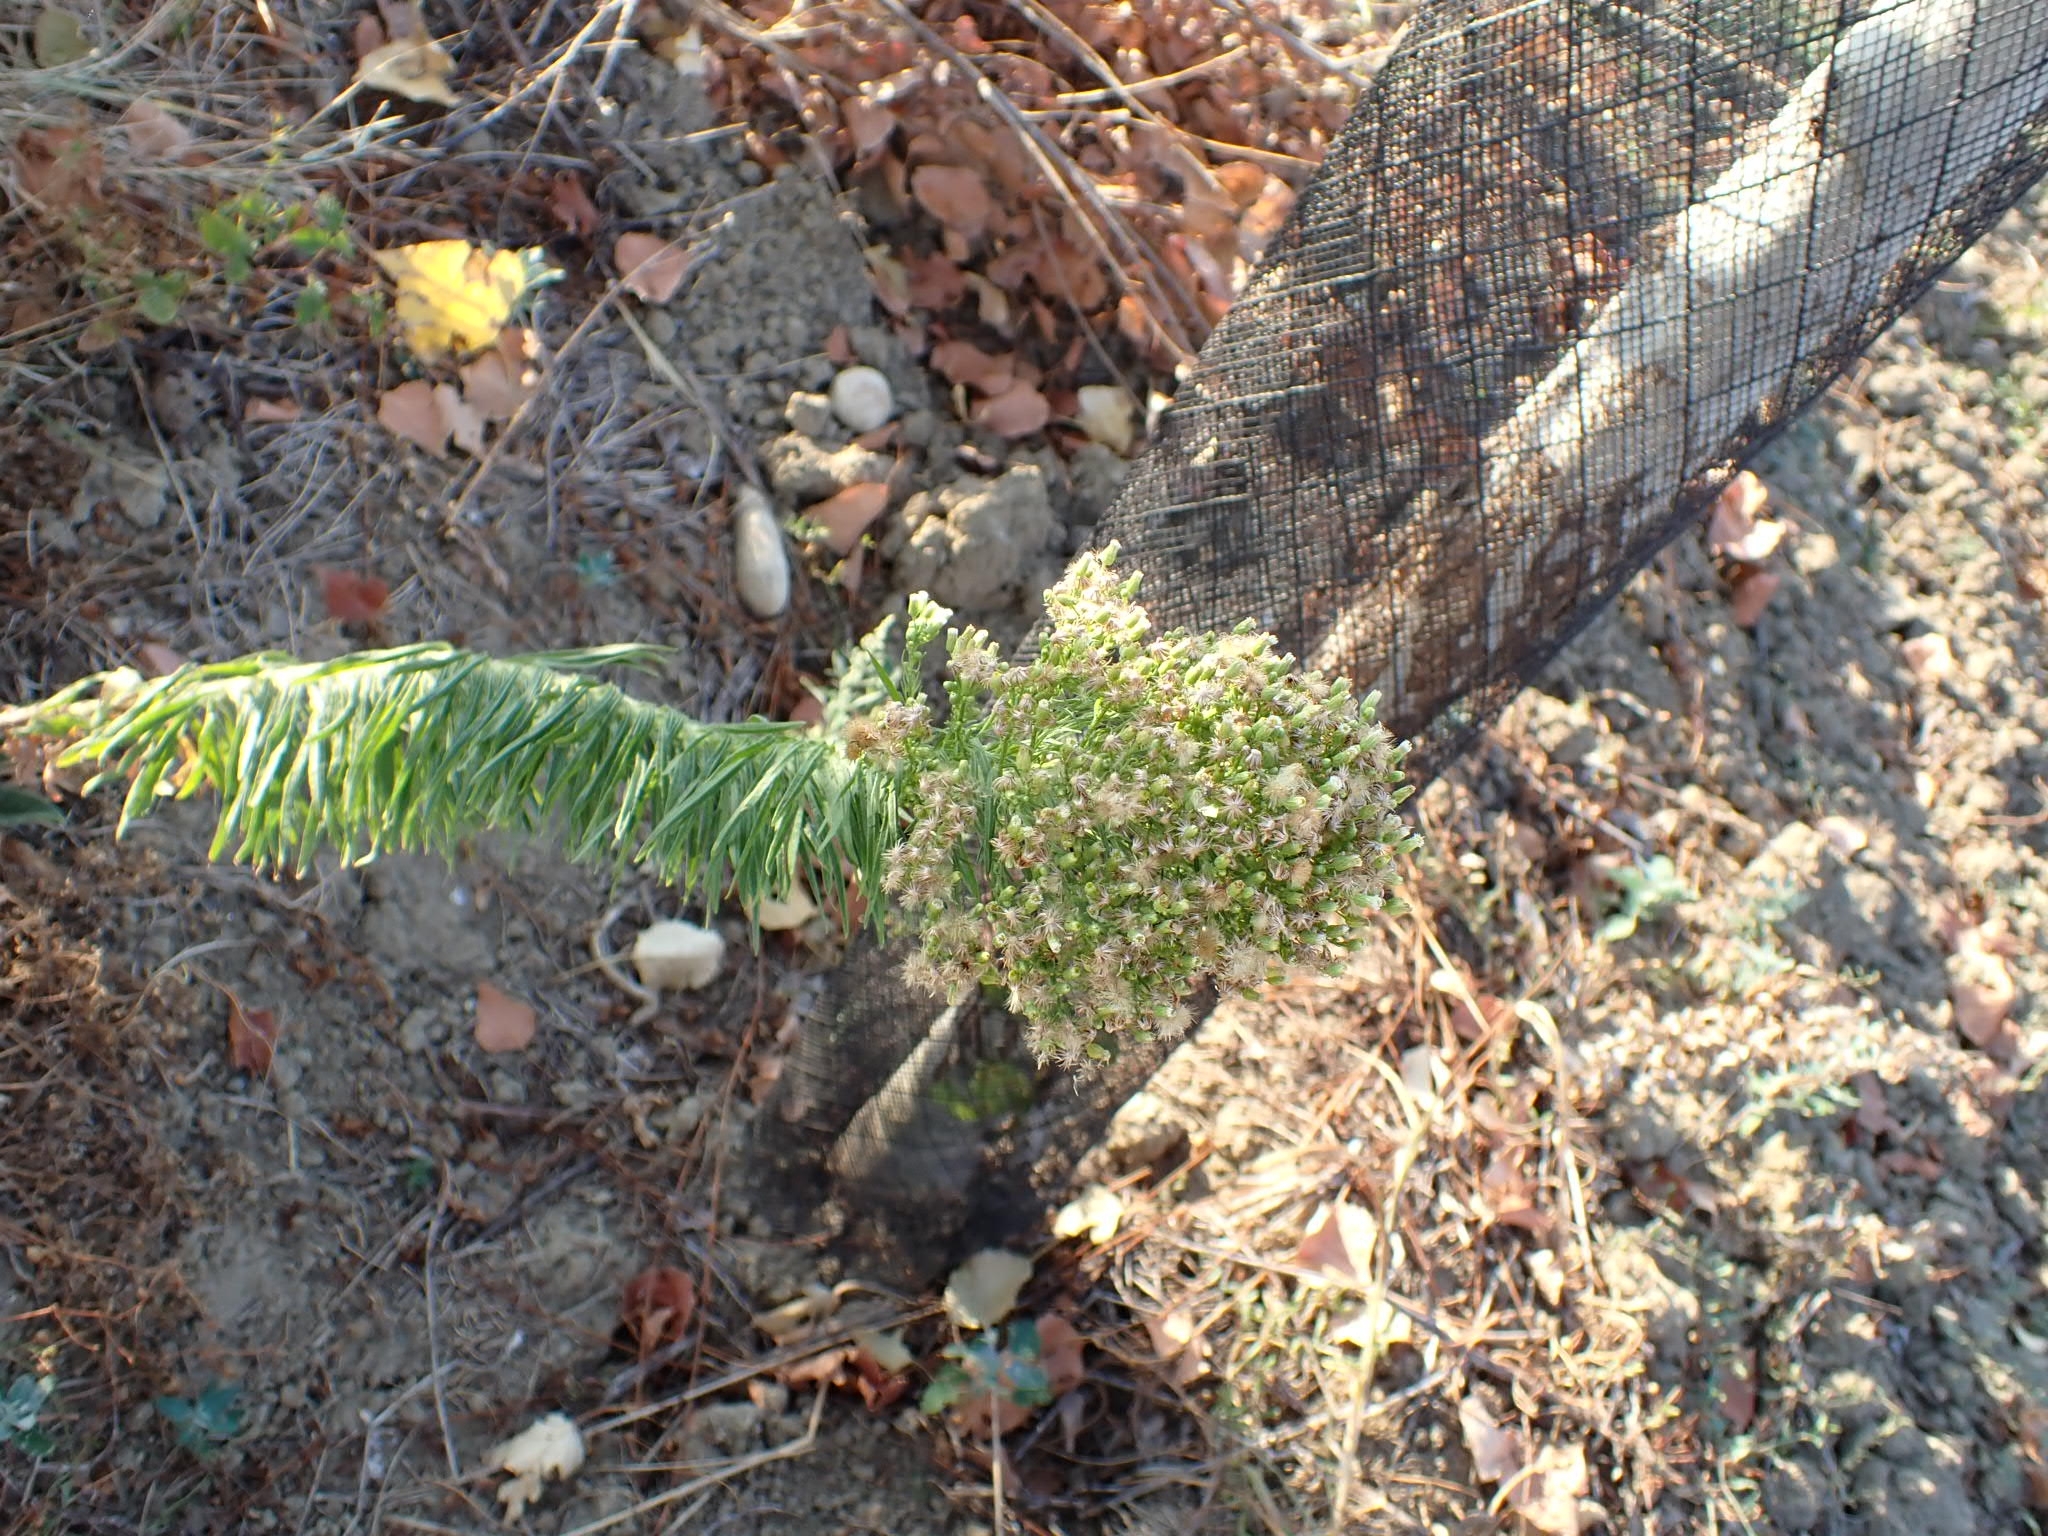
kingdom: Plantae
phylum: Tracheophyta
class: Magnoliopsida
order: Asterales
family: Asteraceae
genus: Erigeron
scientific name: Erigeron canadensis
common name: Canadian fleabane
